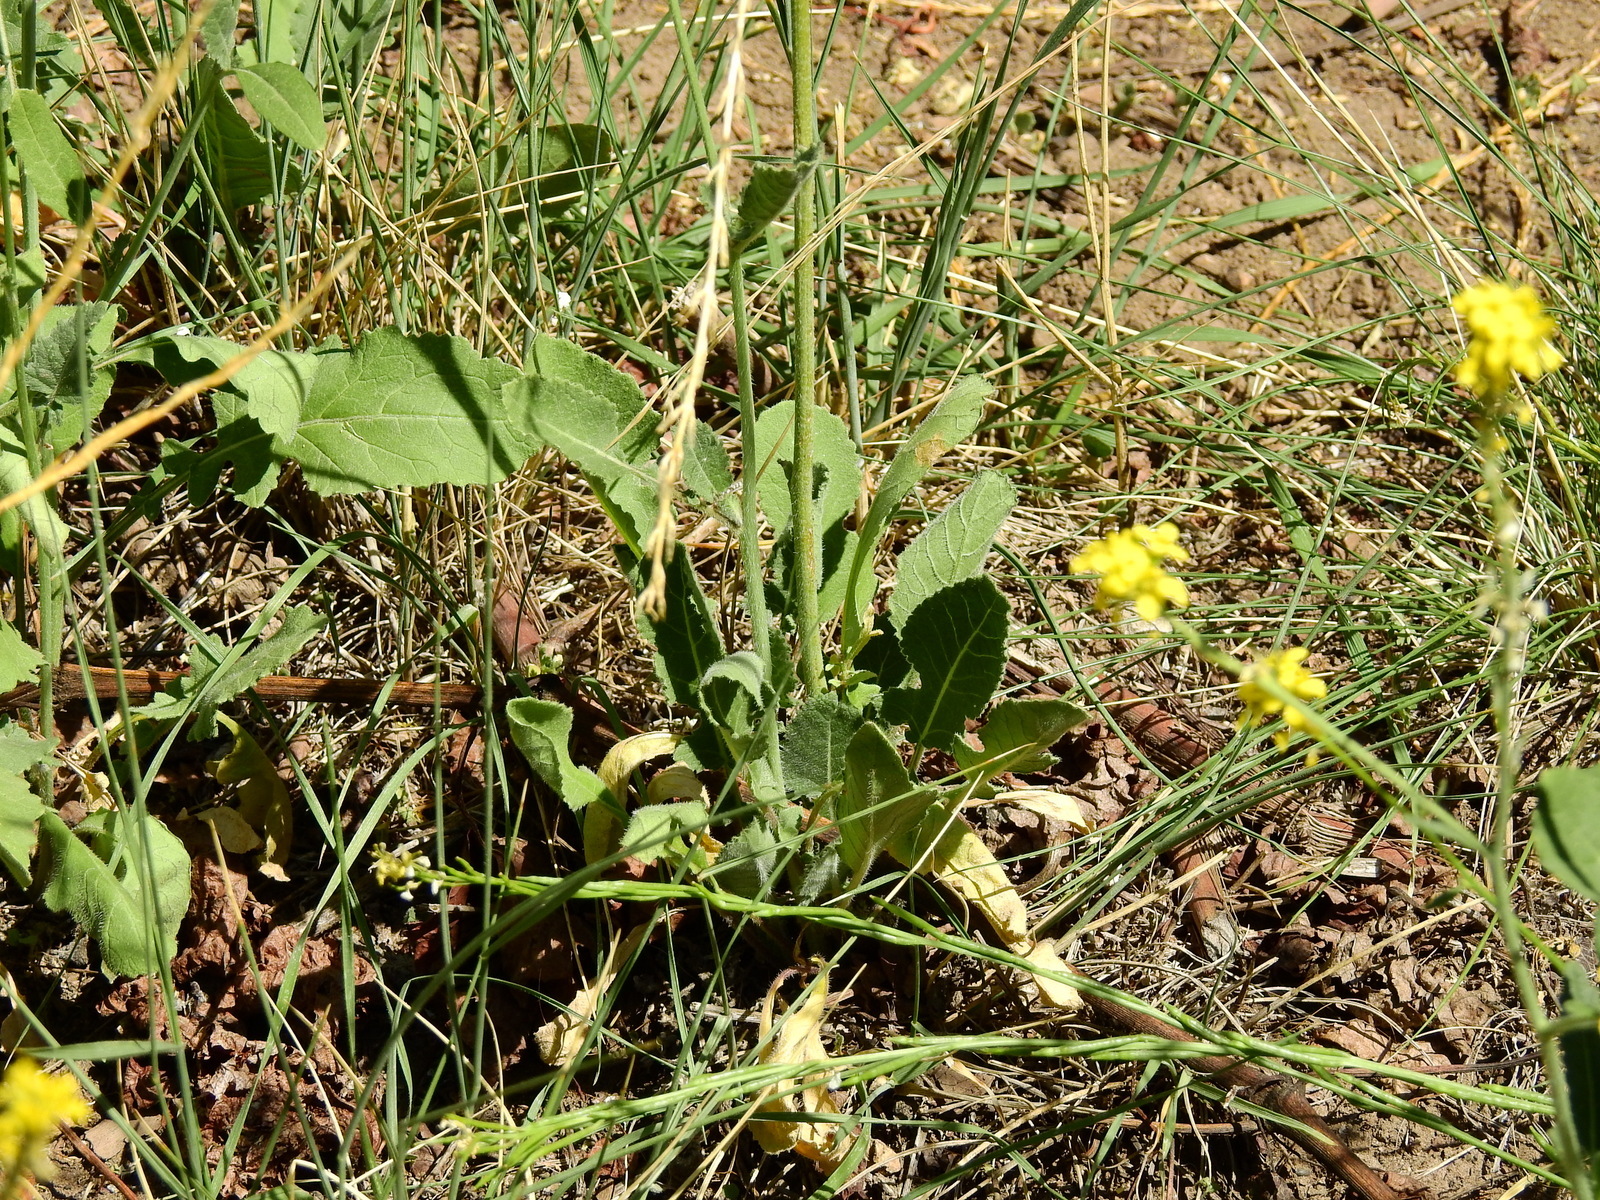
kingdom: Plantae
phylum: Tracheophyta
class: Magnoliopsida
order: Brassicales
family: Brassicaceae
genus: Hirschfeldia
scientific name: Hirschfeldia incana
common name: Hoary mustard
